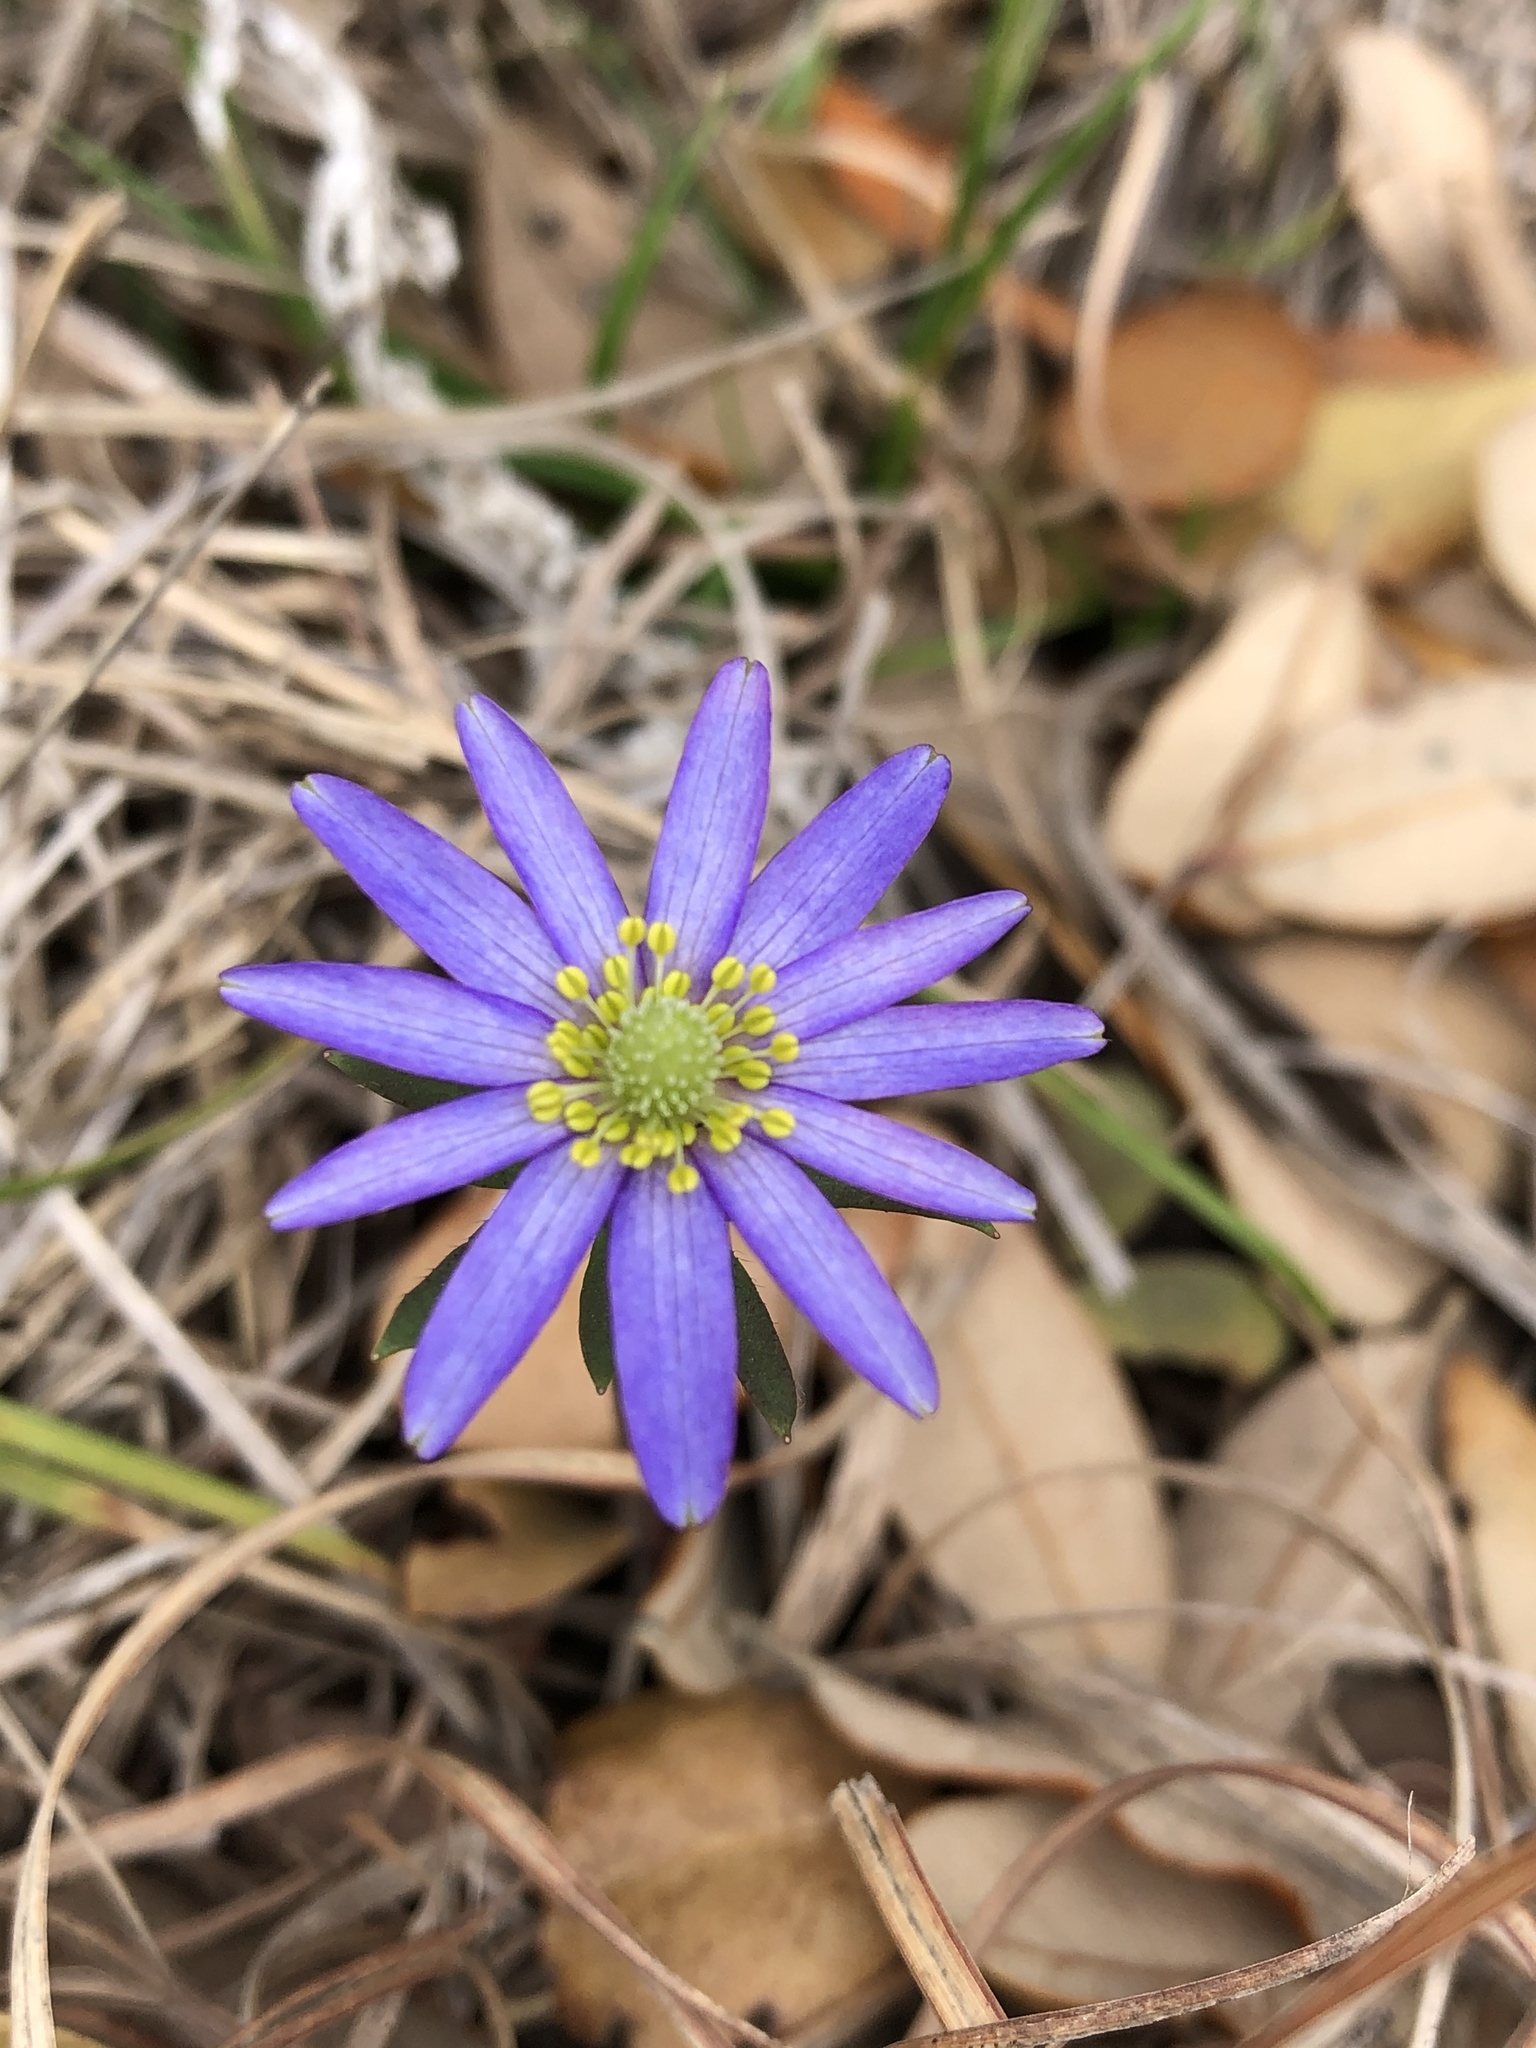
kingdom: Plantae
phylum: Tracheophyta
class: Magnoliopsida
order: Ranunculales
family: Ranunculaceae
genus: Anemone
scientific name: Anemone berlandieri
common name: Ten-petal anemone
